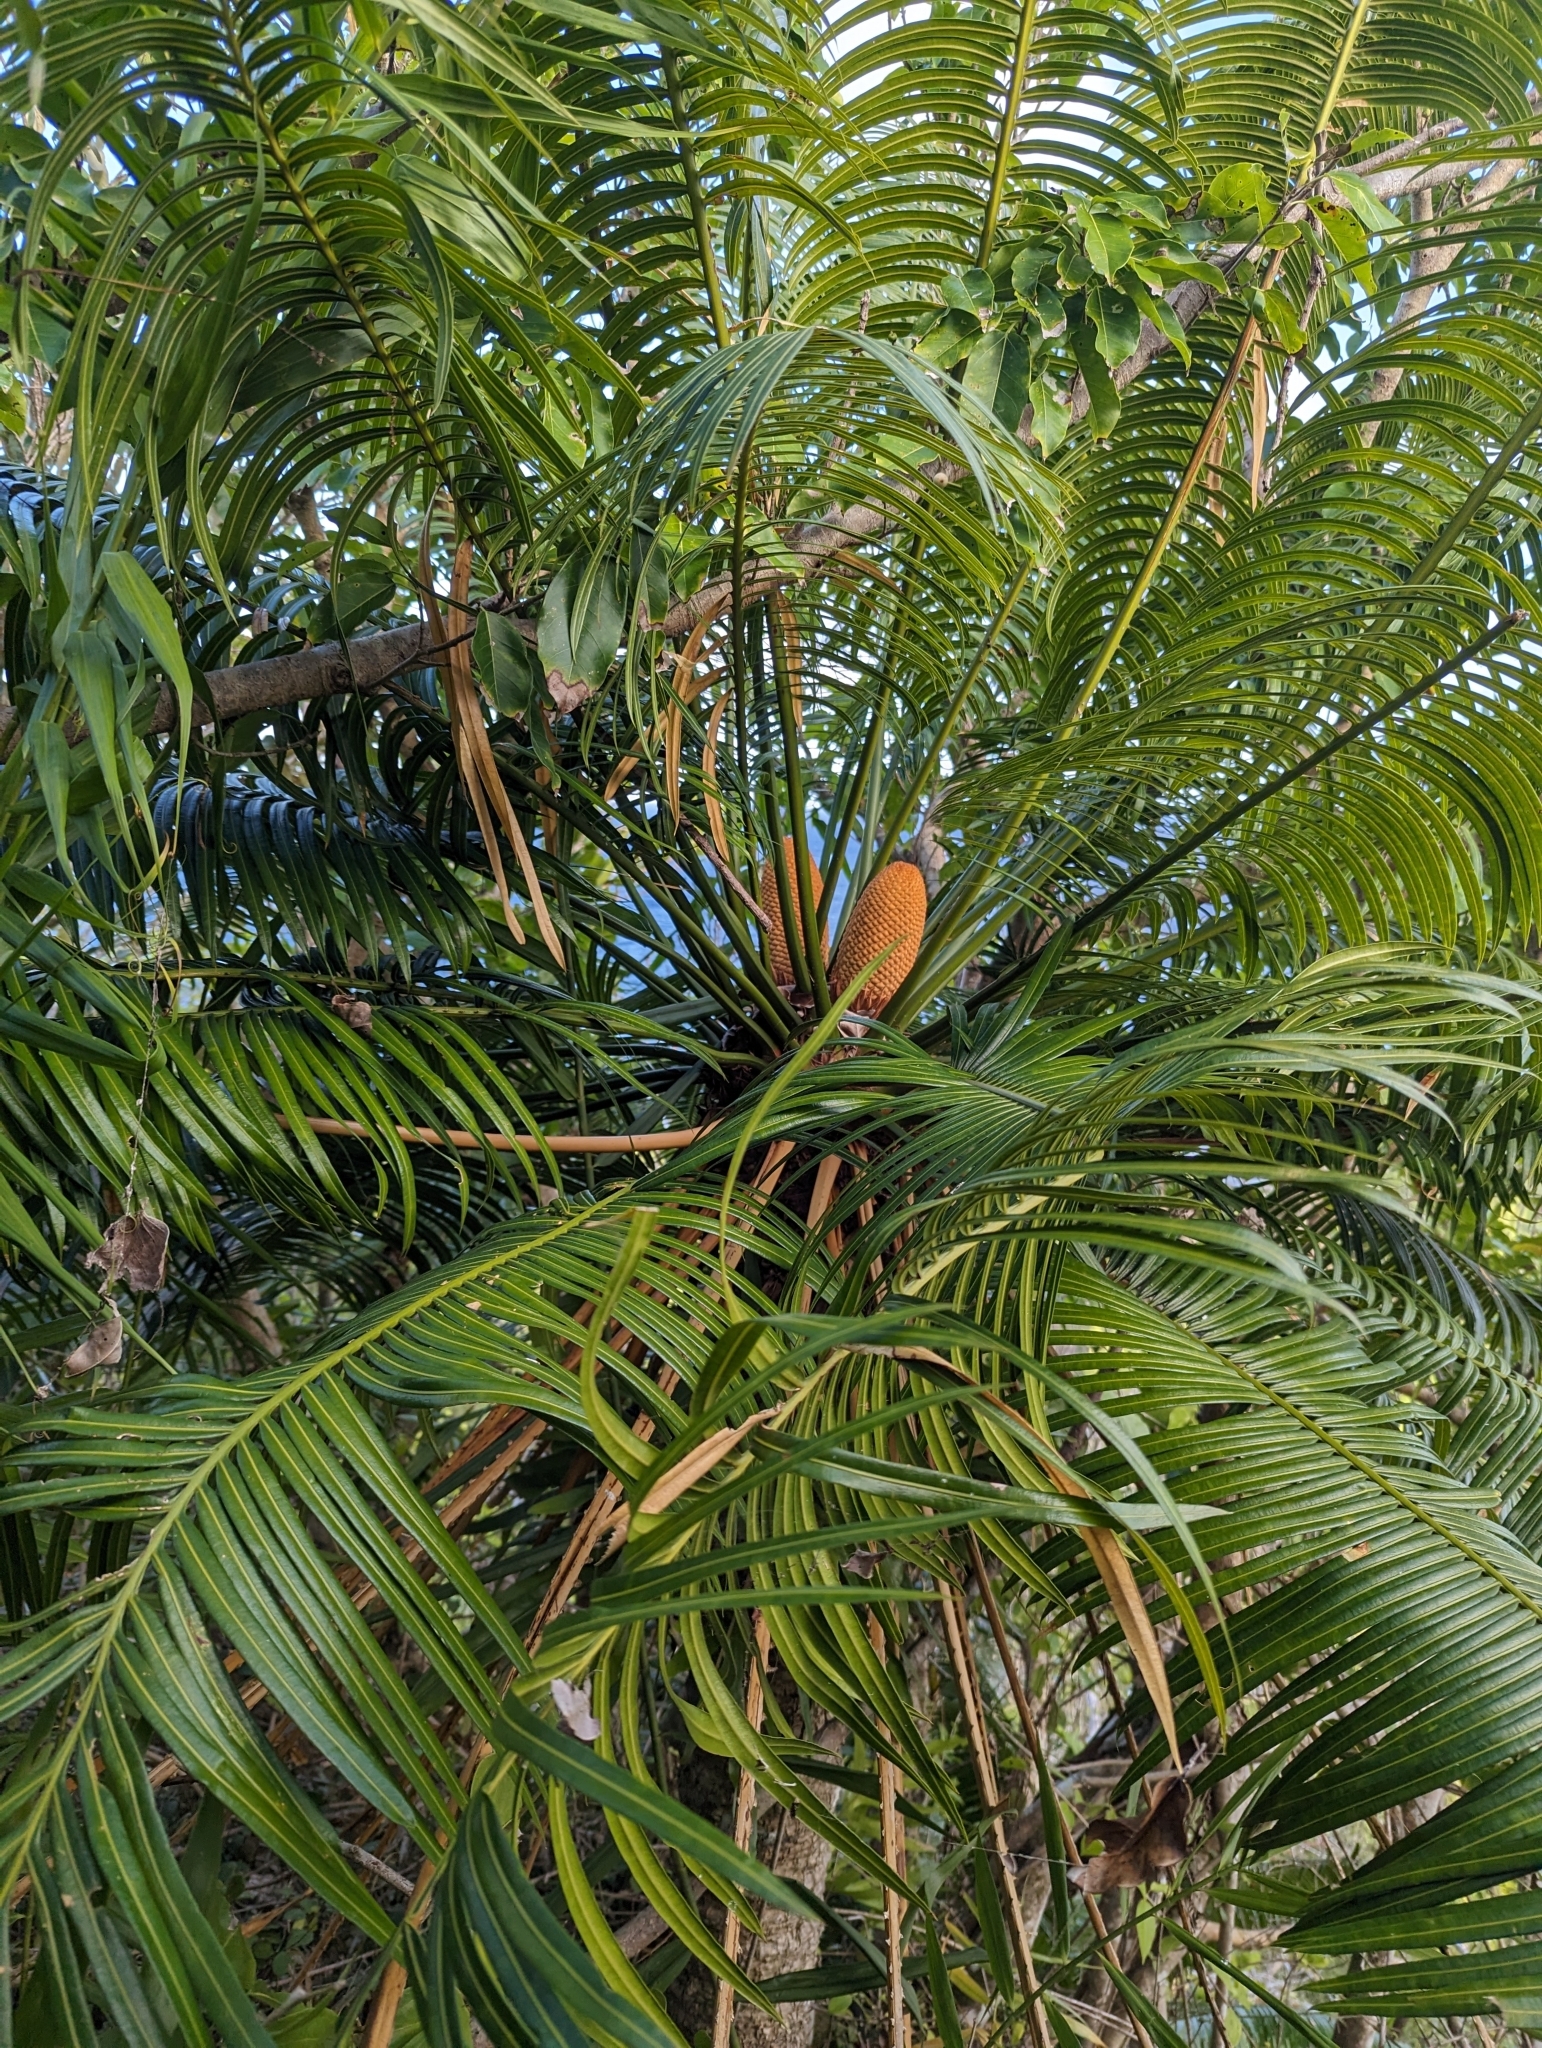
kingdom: Plantae
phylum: Tracheophyta
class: Cycadopsida
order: Cycadales
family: Cycadaceae
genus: Cycas
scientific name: Cycas micronesica
